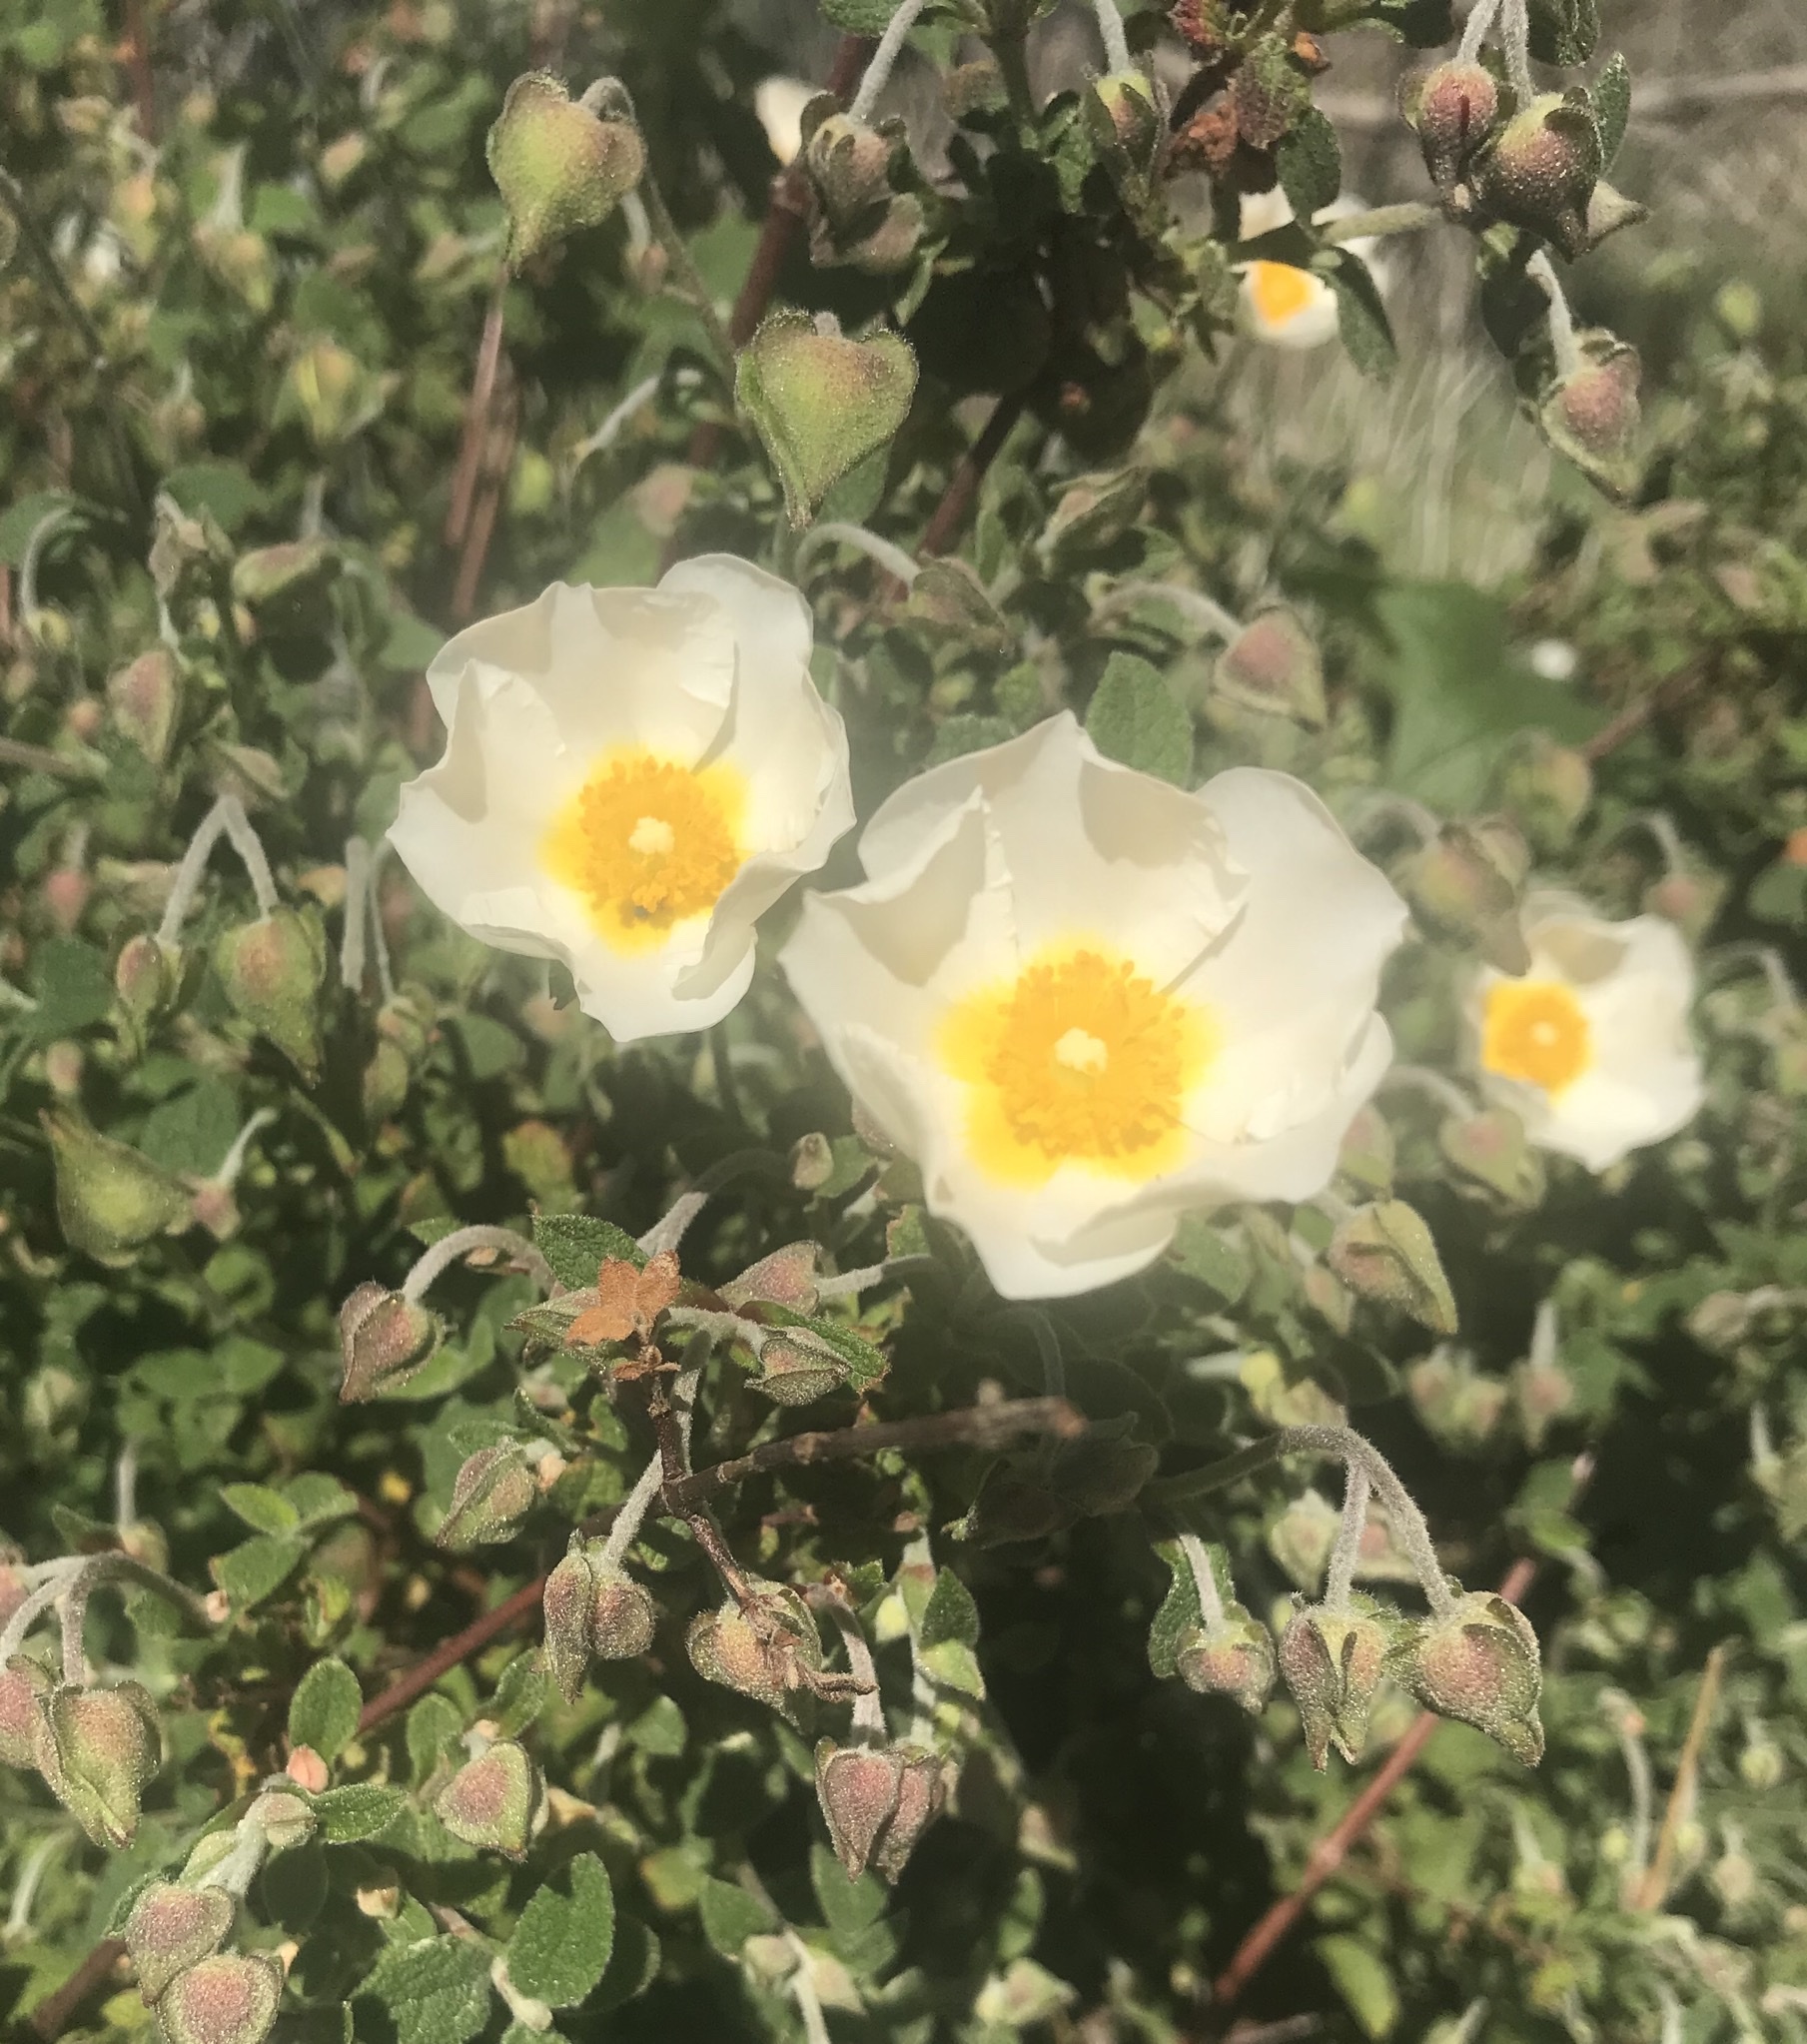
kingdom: Plantae
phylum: Tracheophyta
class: Magnoliopsida
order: Malvales
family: Cistaceae
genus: Cistus
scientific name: Cistus salviifolius
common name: Salvia cistus
